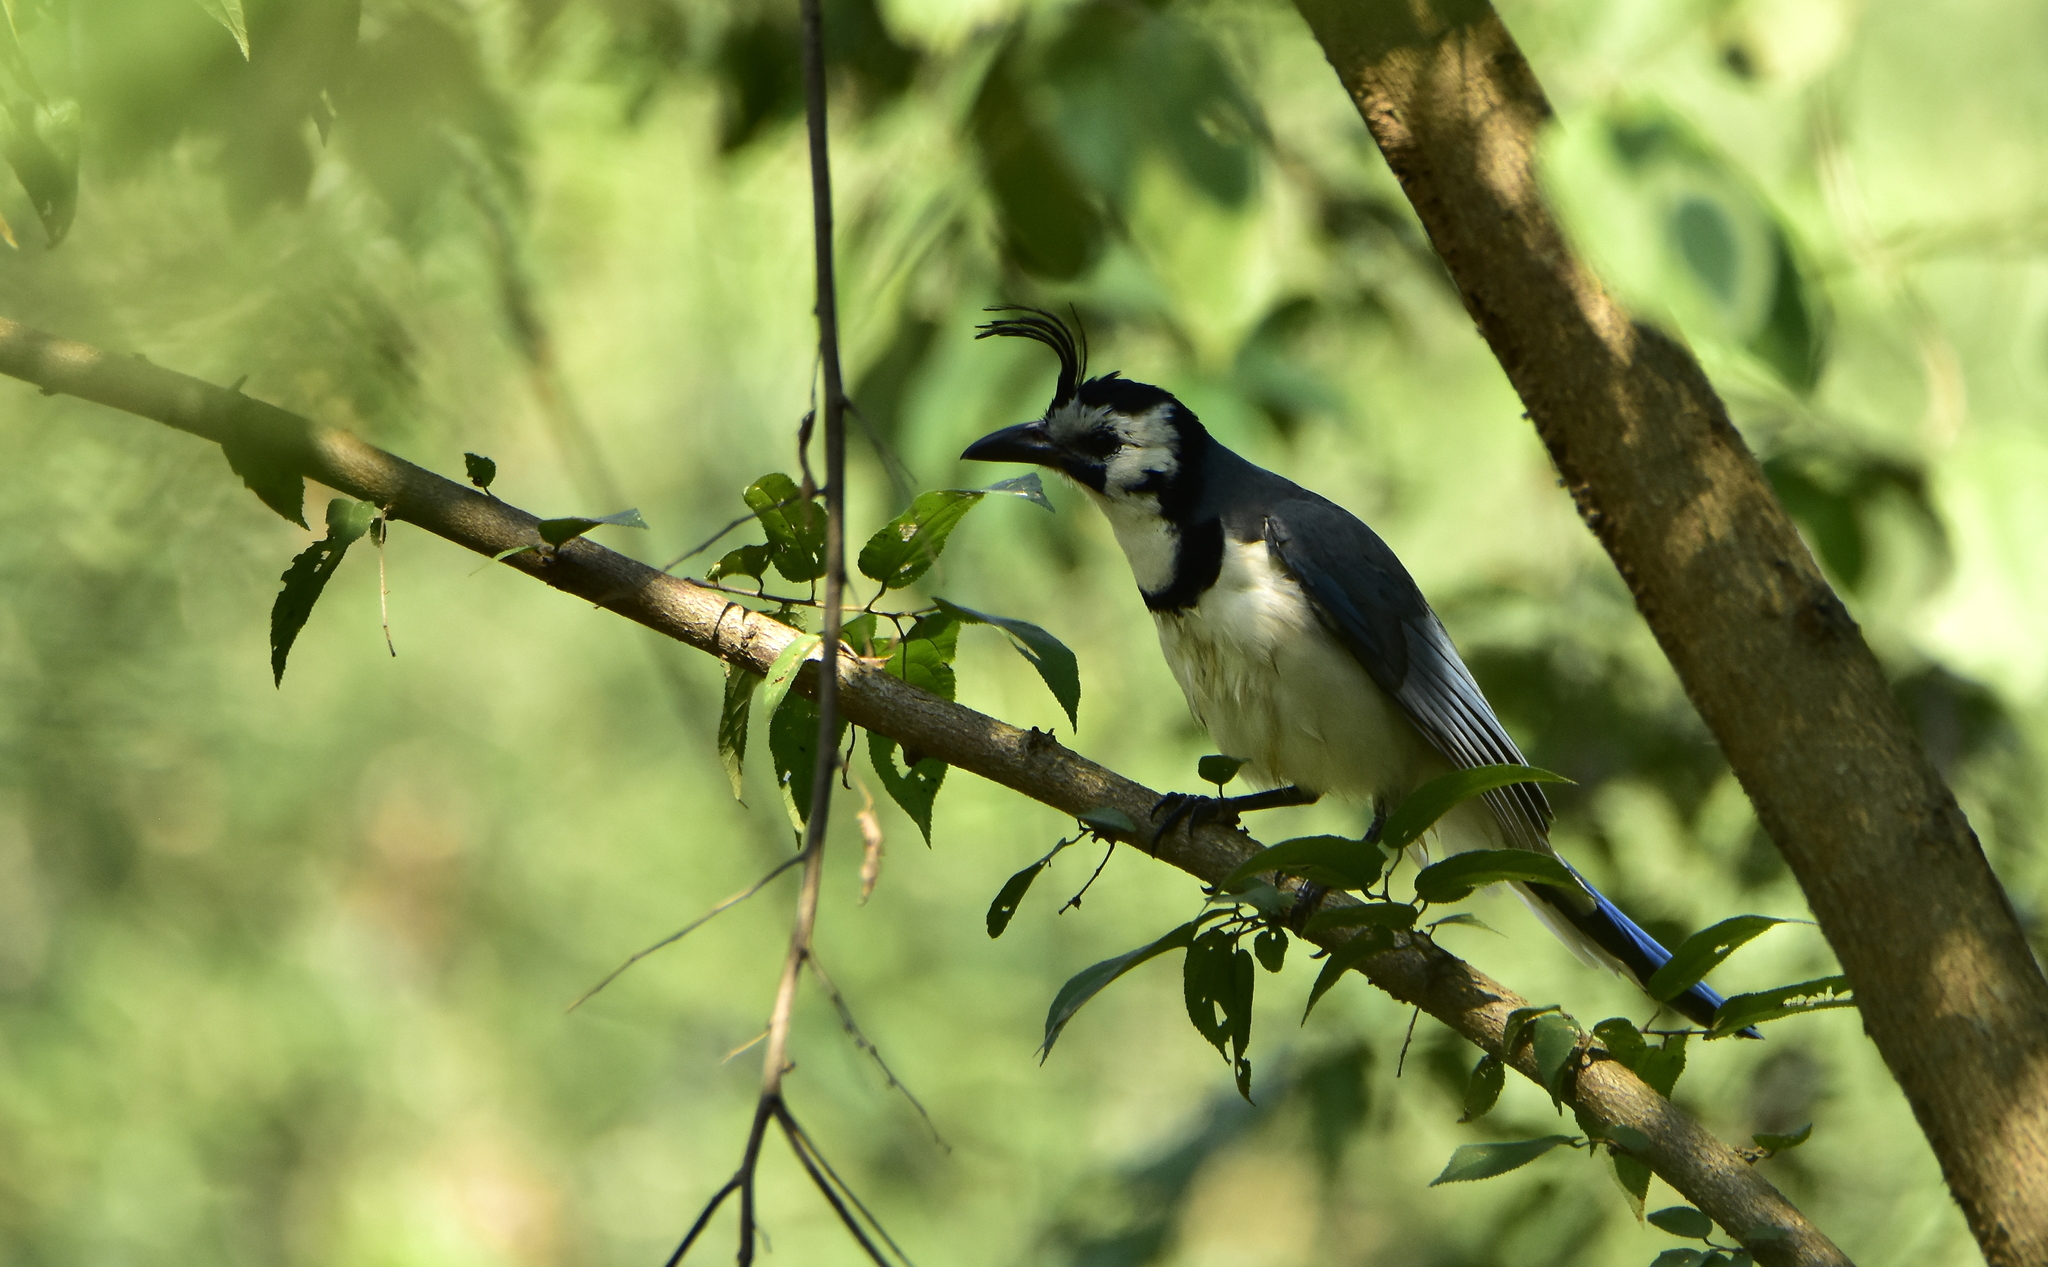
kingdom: Animalia
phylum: Chordata
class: Aves
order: Passeriformes
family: Corvidae
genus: Calocitta
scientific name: Calocitta formosa
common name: White-throated magpie-jay
